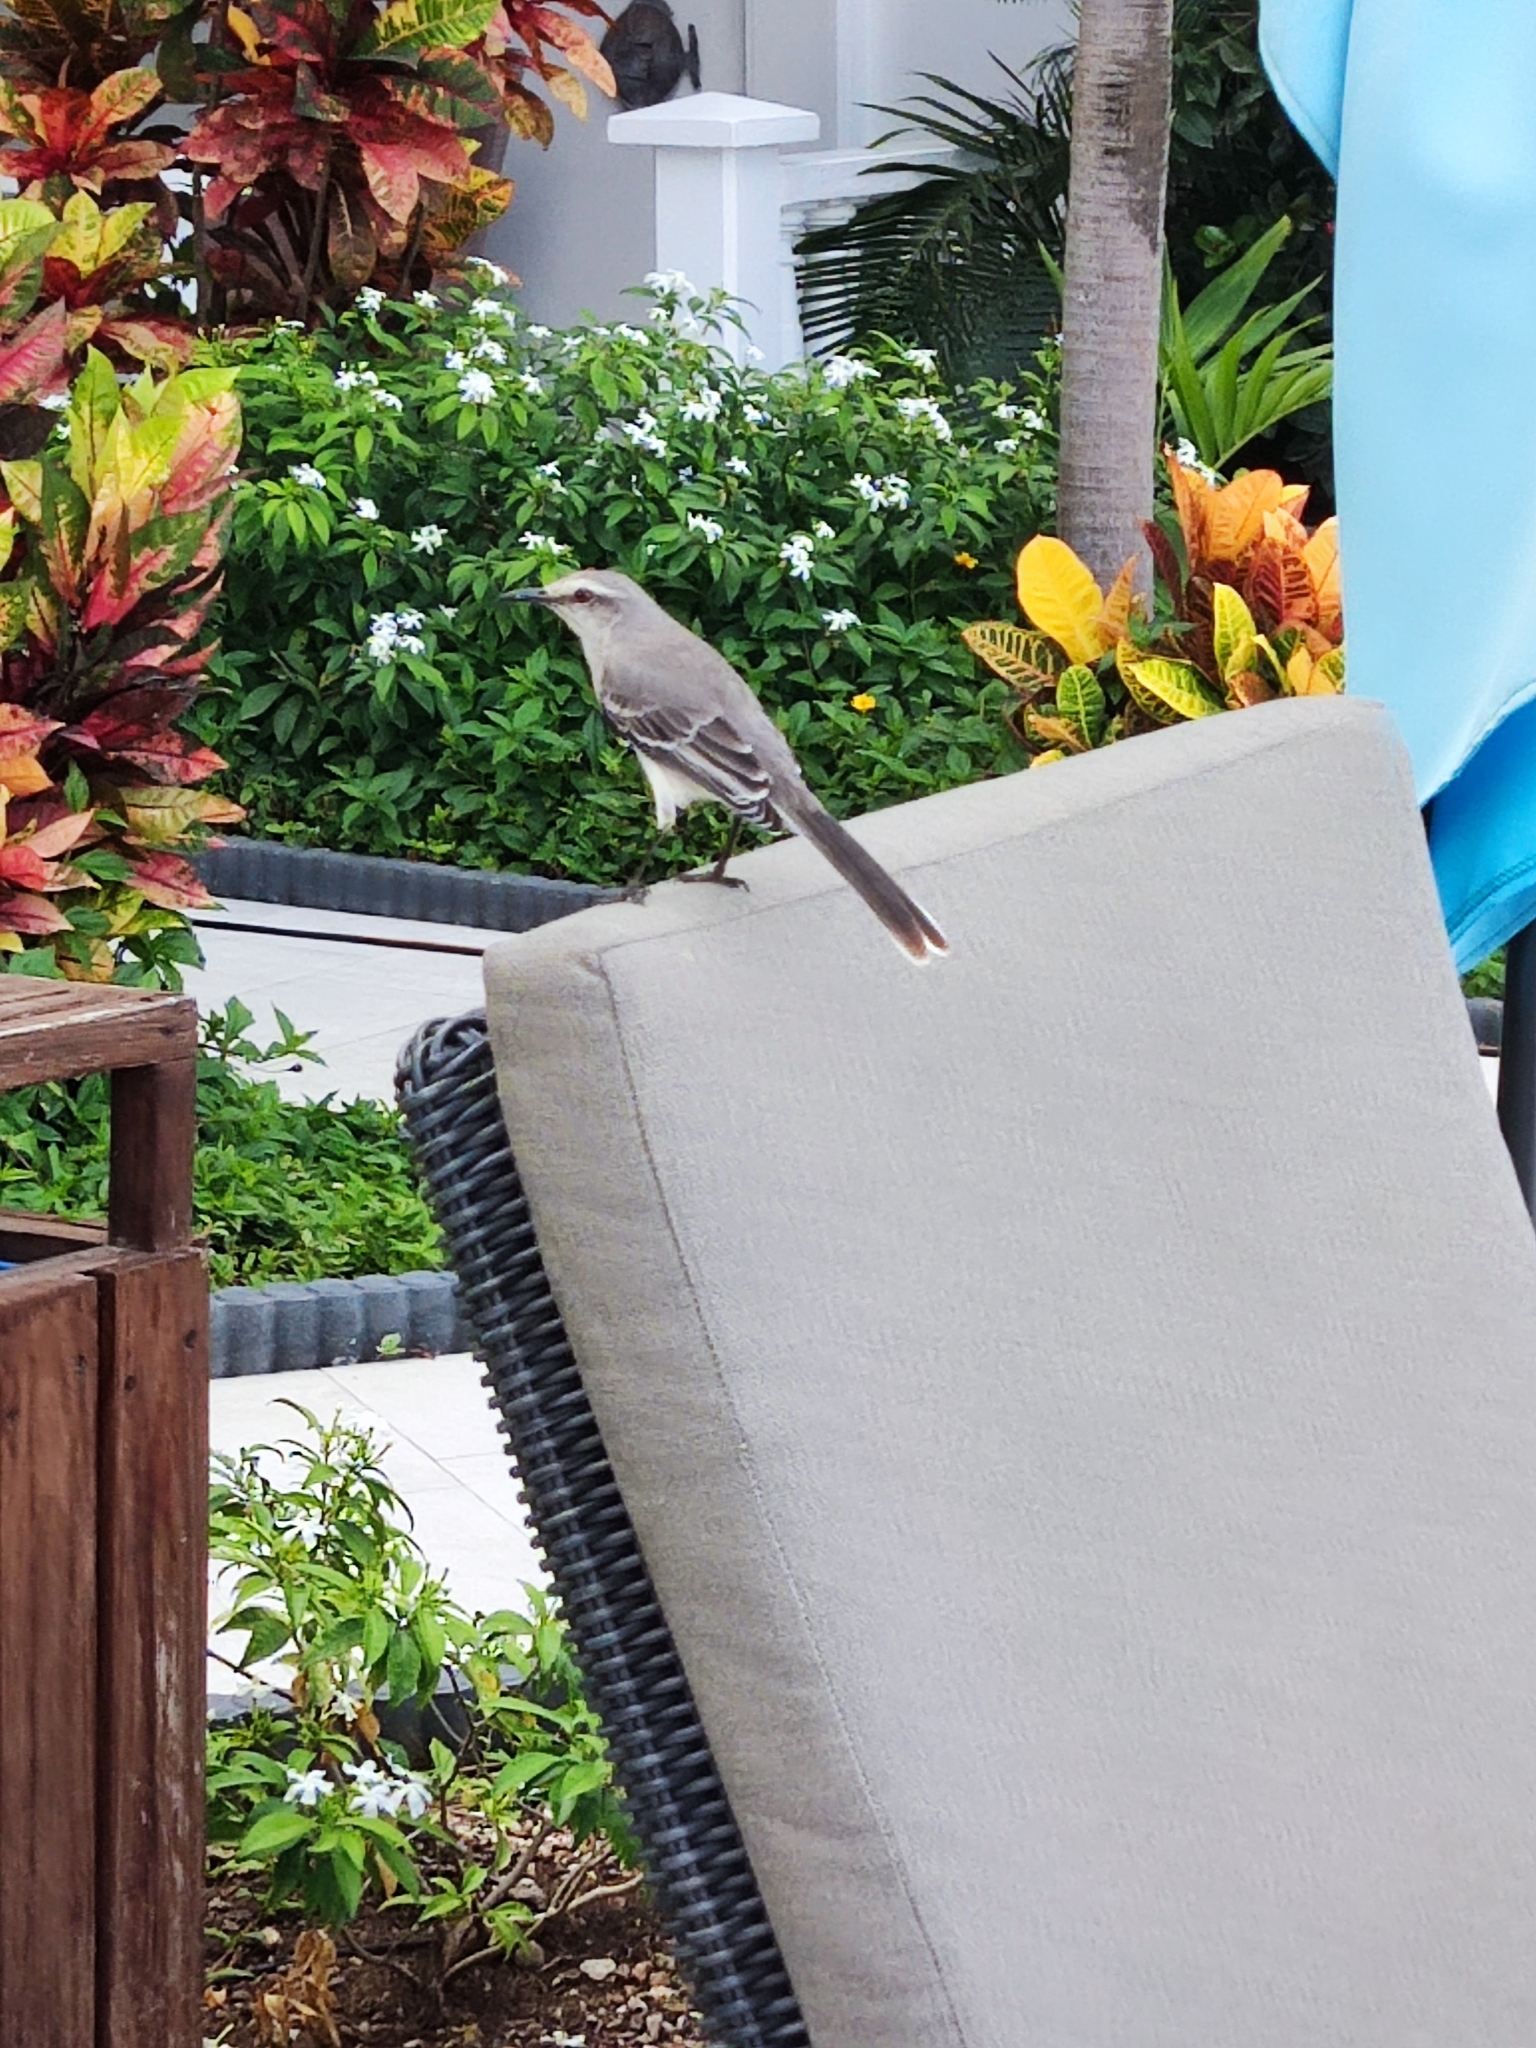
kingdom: Animalia
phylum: Chordata
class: Aves
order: Passeriformes
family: Mimidae
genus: Mimus
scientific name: Mimus gilvus
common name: Tropical mockingbird
